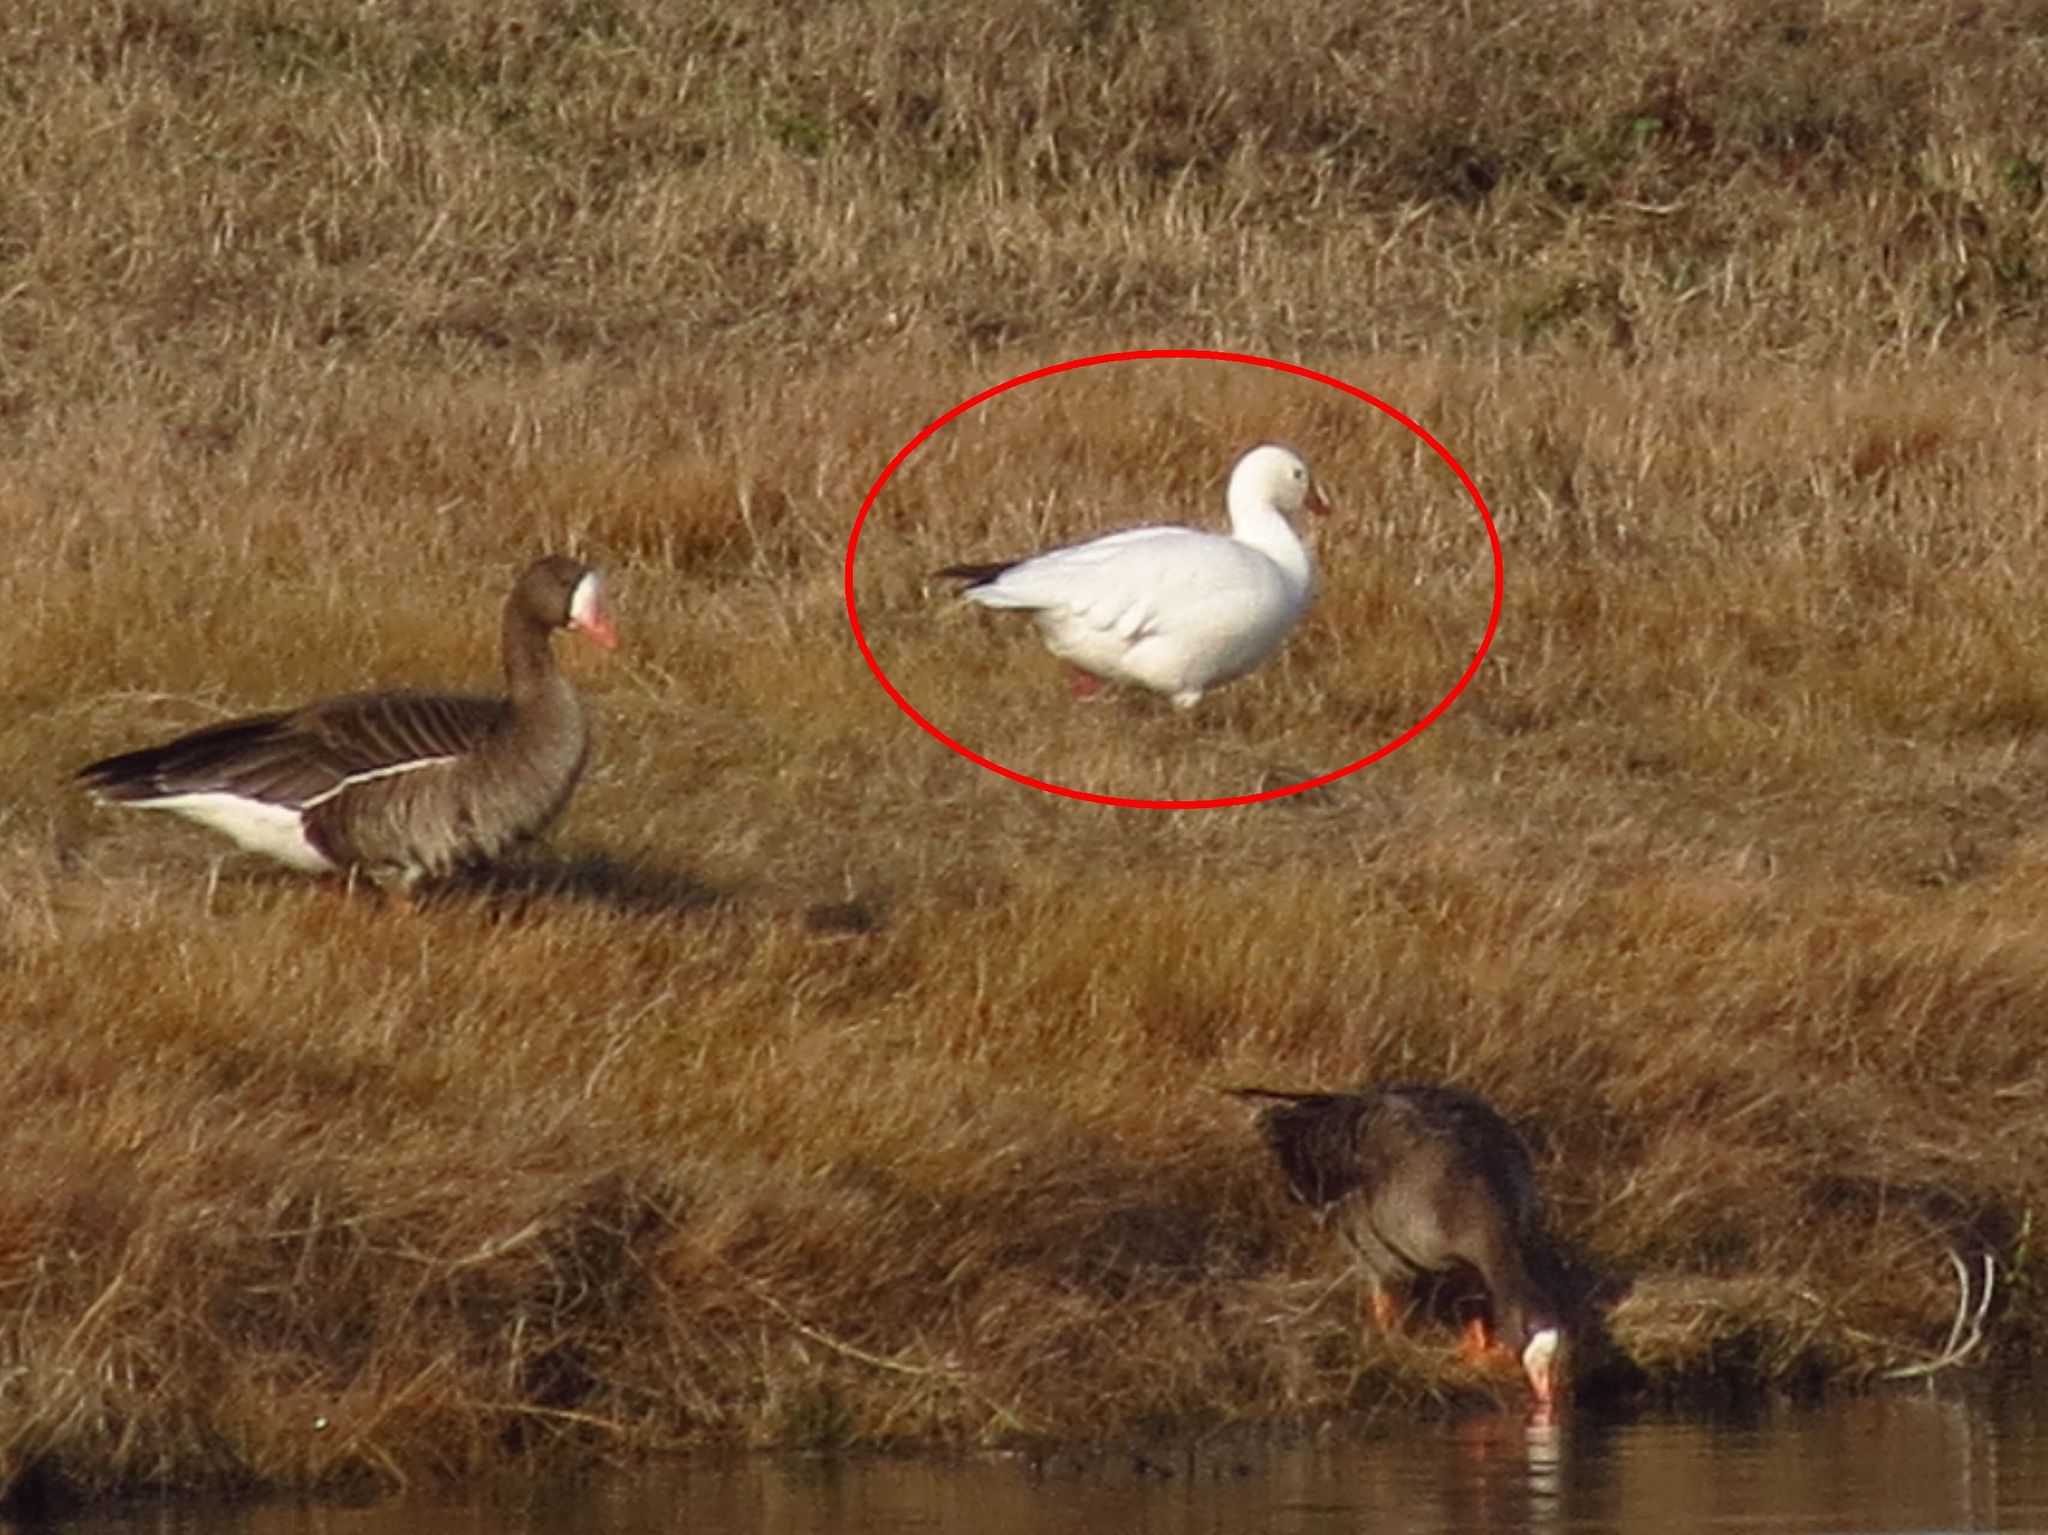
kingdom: Animalia
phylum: Chordata
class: Aves
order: Anseriformes
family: Anatidae
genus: Anser
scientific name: Anser caerulescens
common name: Snow goose
